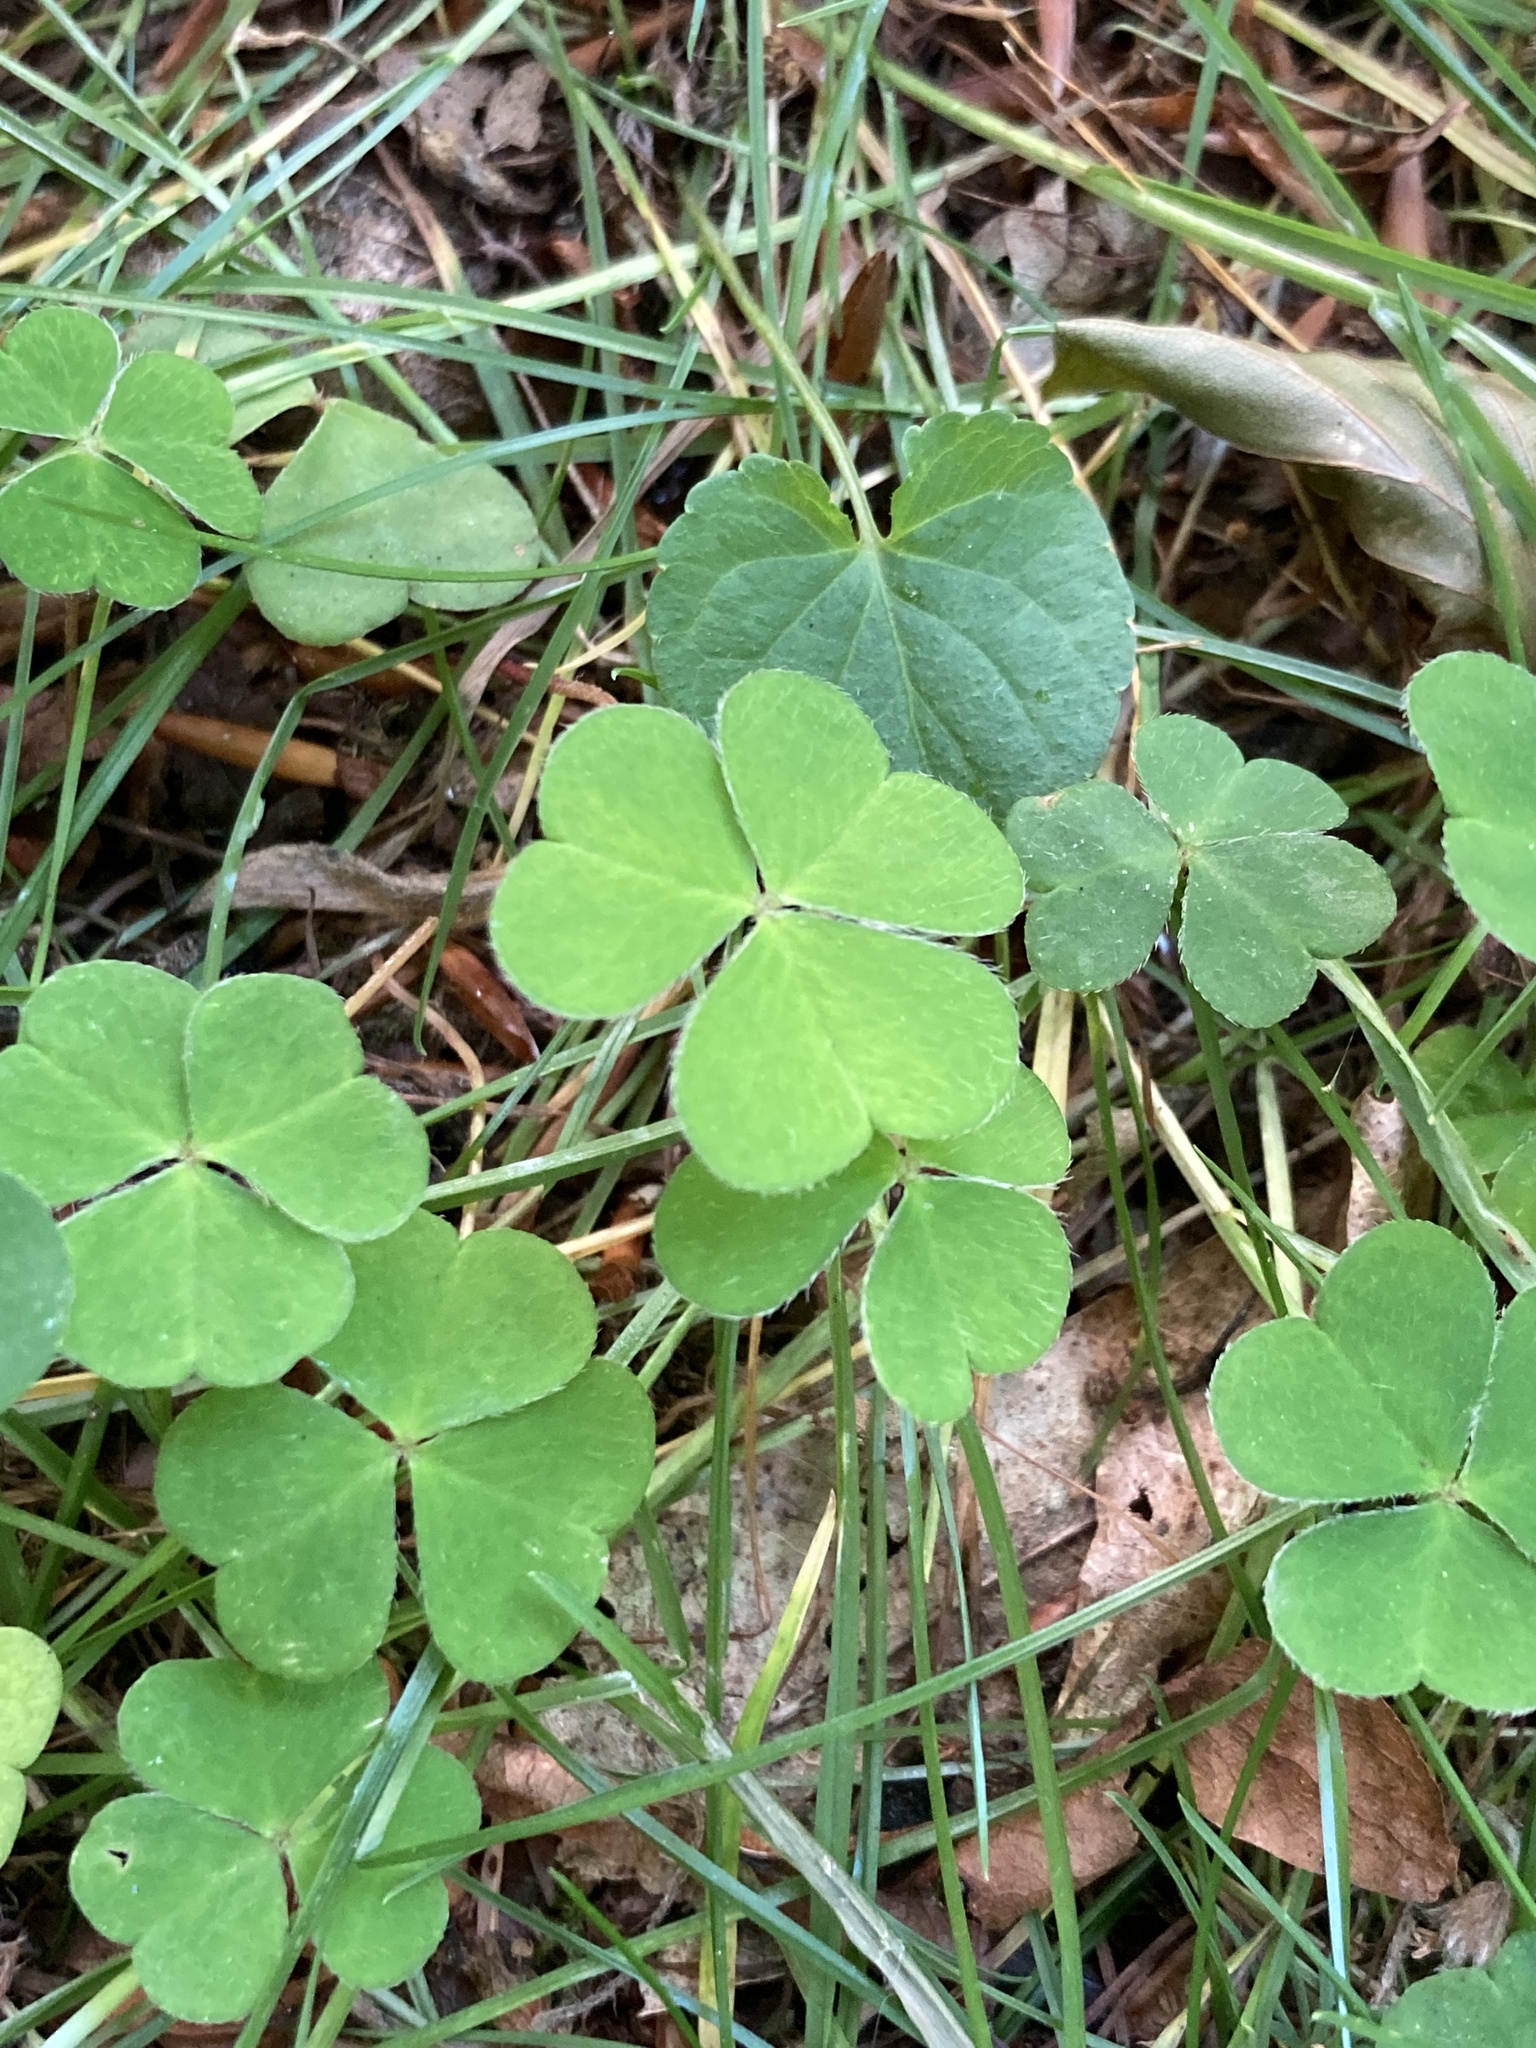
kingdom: Plantae
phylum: Tracheophyta
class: Magnoliopsida
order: Oxalidales
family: Oxalidaceae
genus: Oxalis
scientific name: Oxalis acetosella
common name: Wood-sorrel
